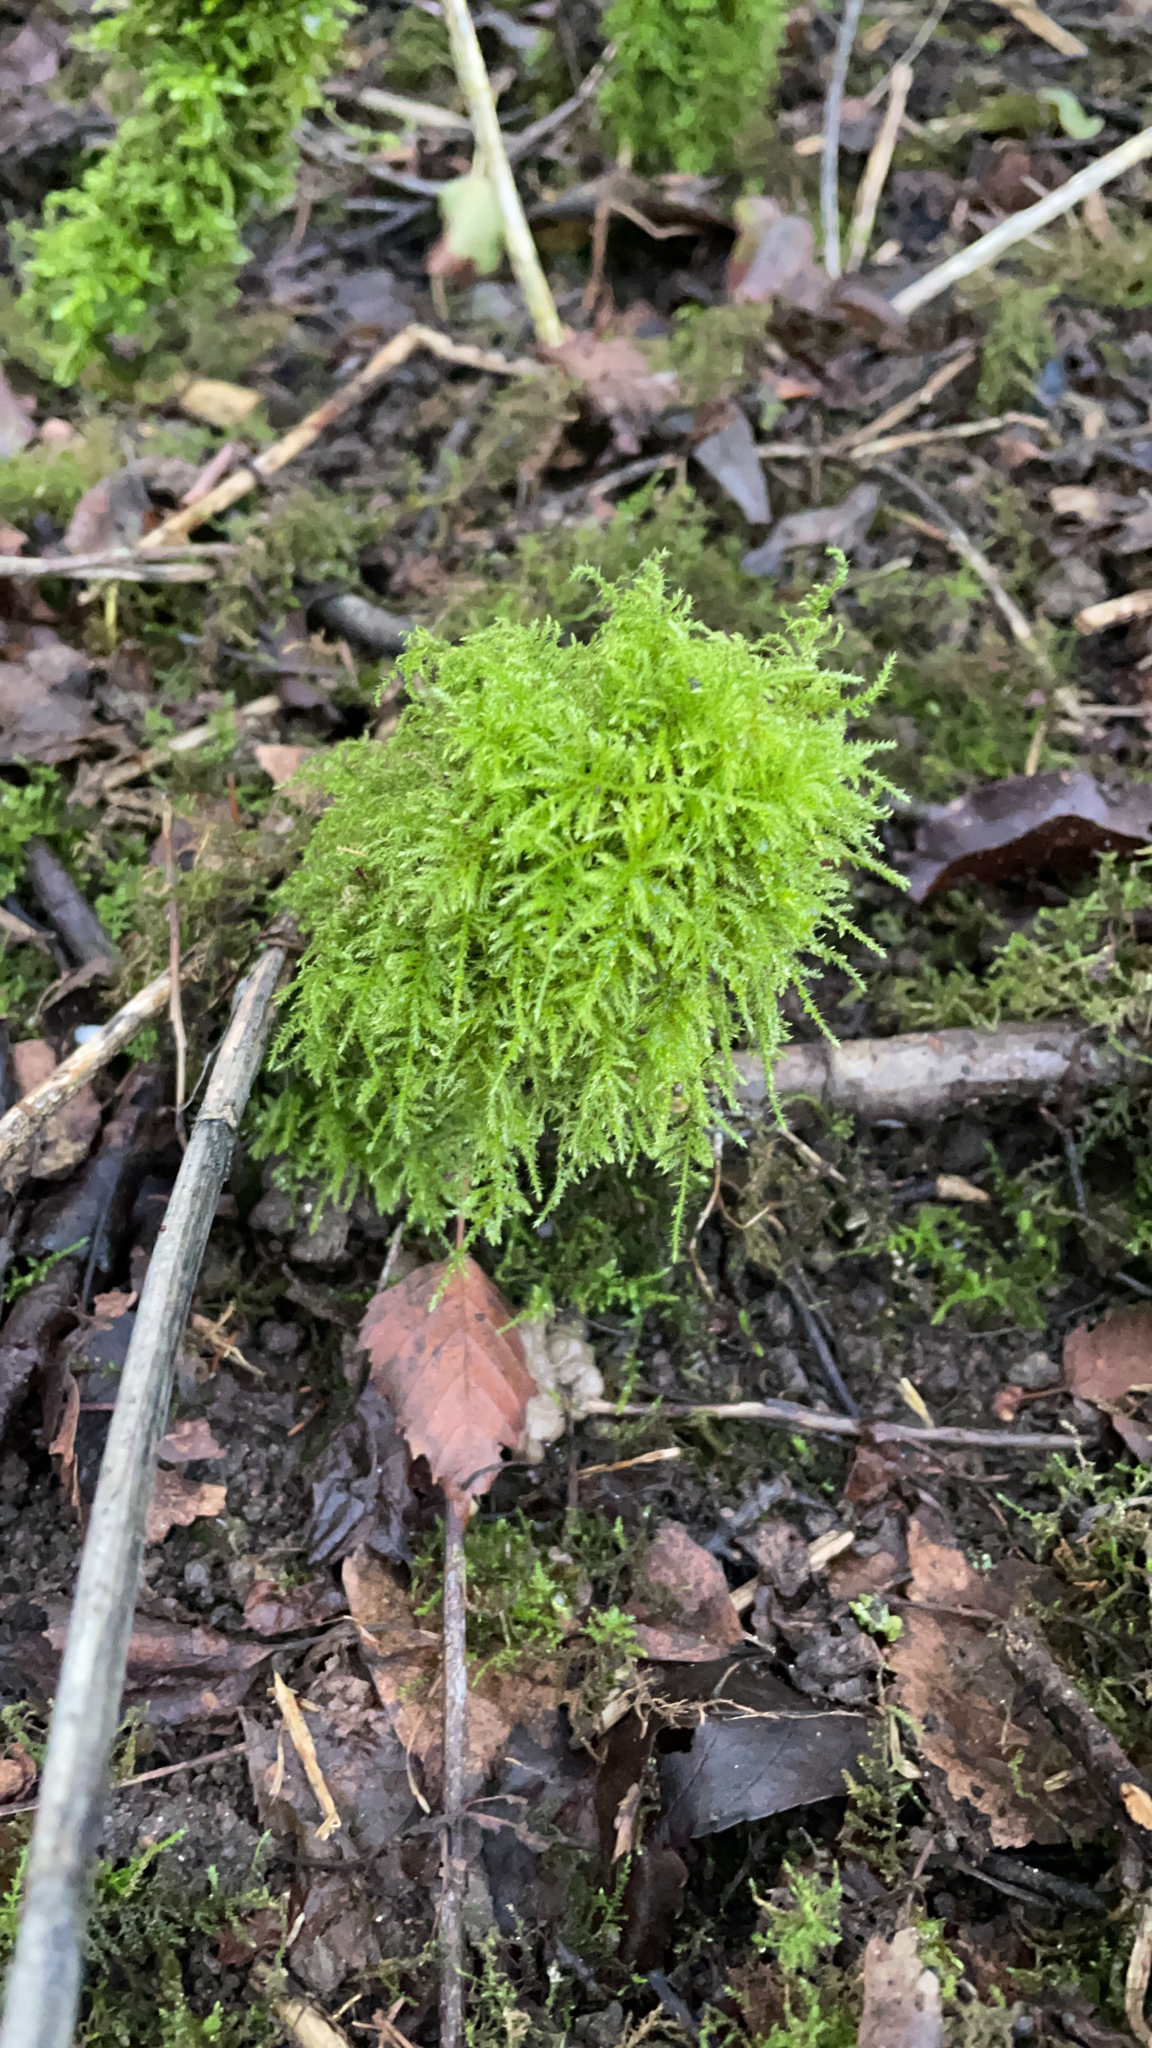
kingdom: Plantae
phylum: Bryophyta
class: Bryopsida
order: Hypnales
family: Brachytheciaceae
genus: Kindbergia
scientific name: Kindbergia praelonga
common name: Slender beaked moss
